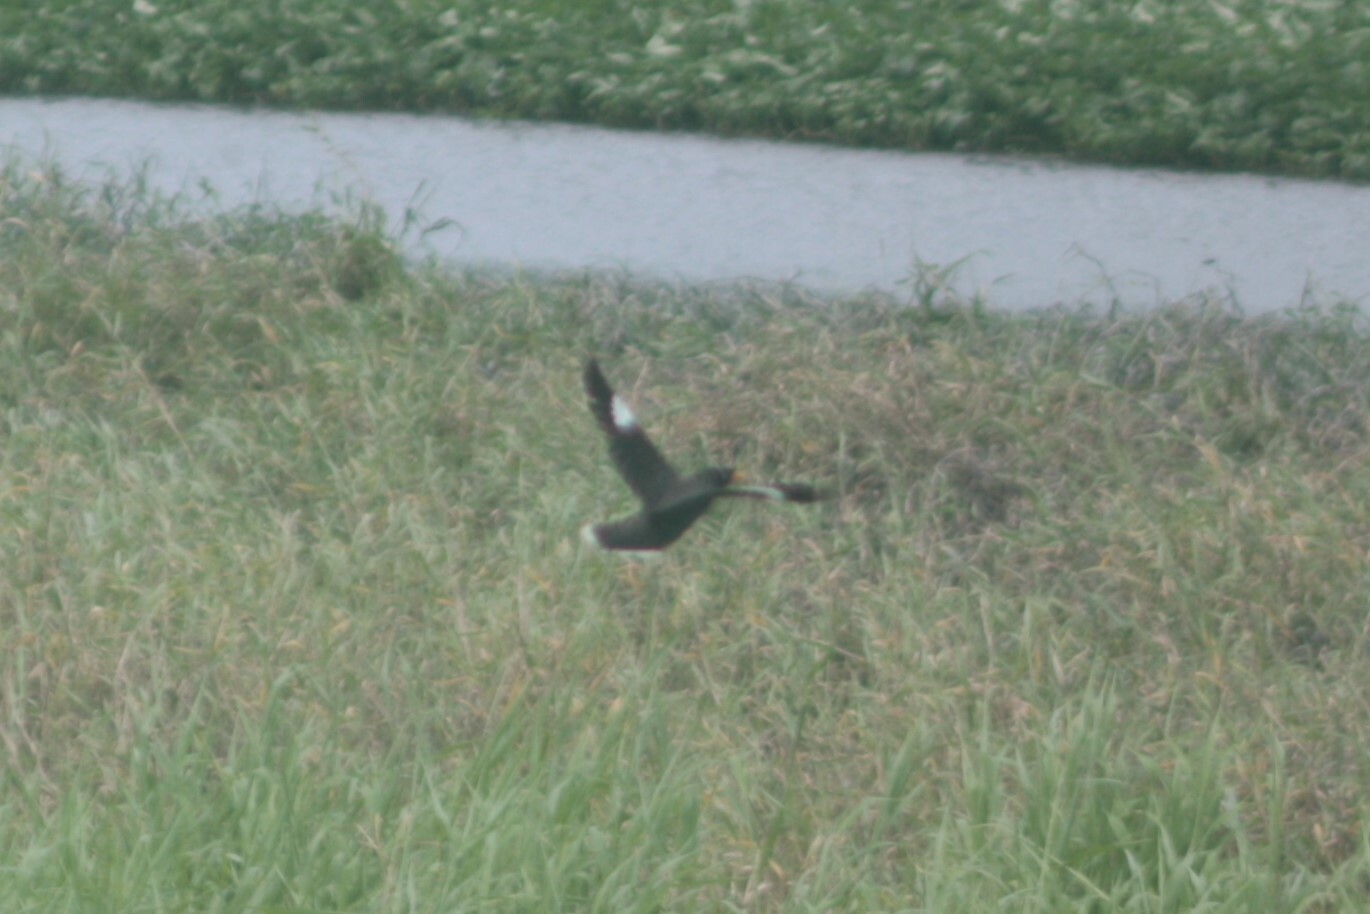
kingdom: Animalia
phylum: Chordata
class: Aves
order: Passeriformes
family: Sturnidae
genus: Acridotheres
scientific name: Acridotheres javanicus
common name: Javan myna
